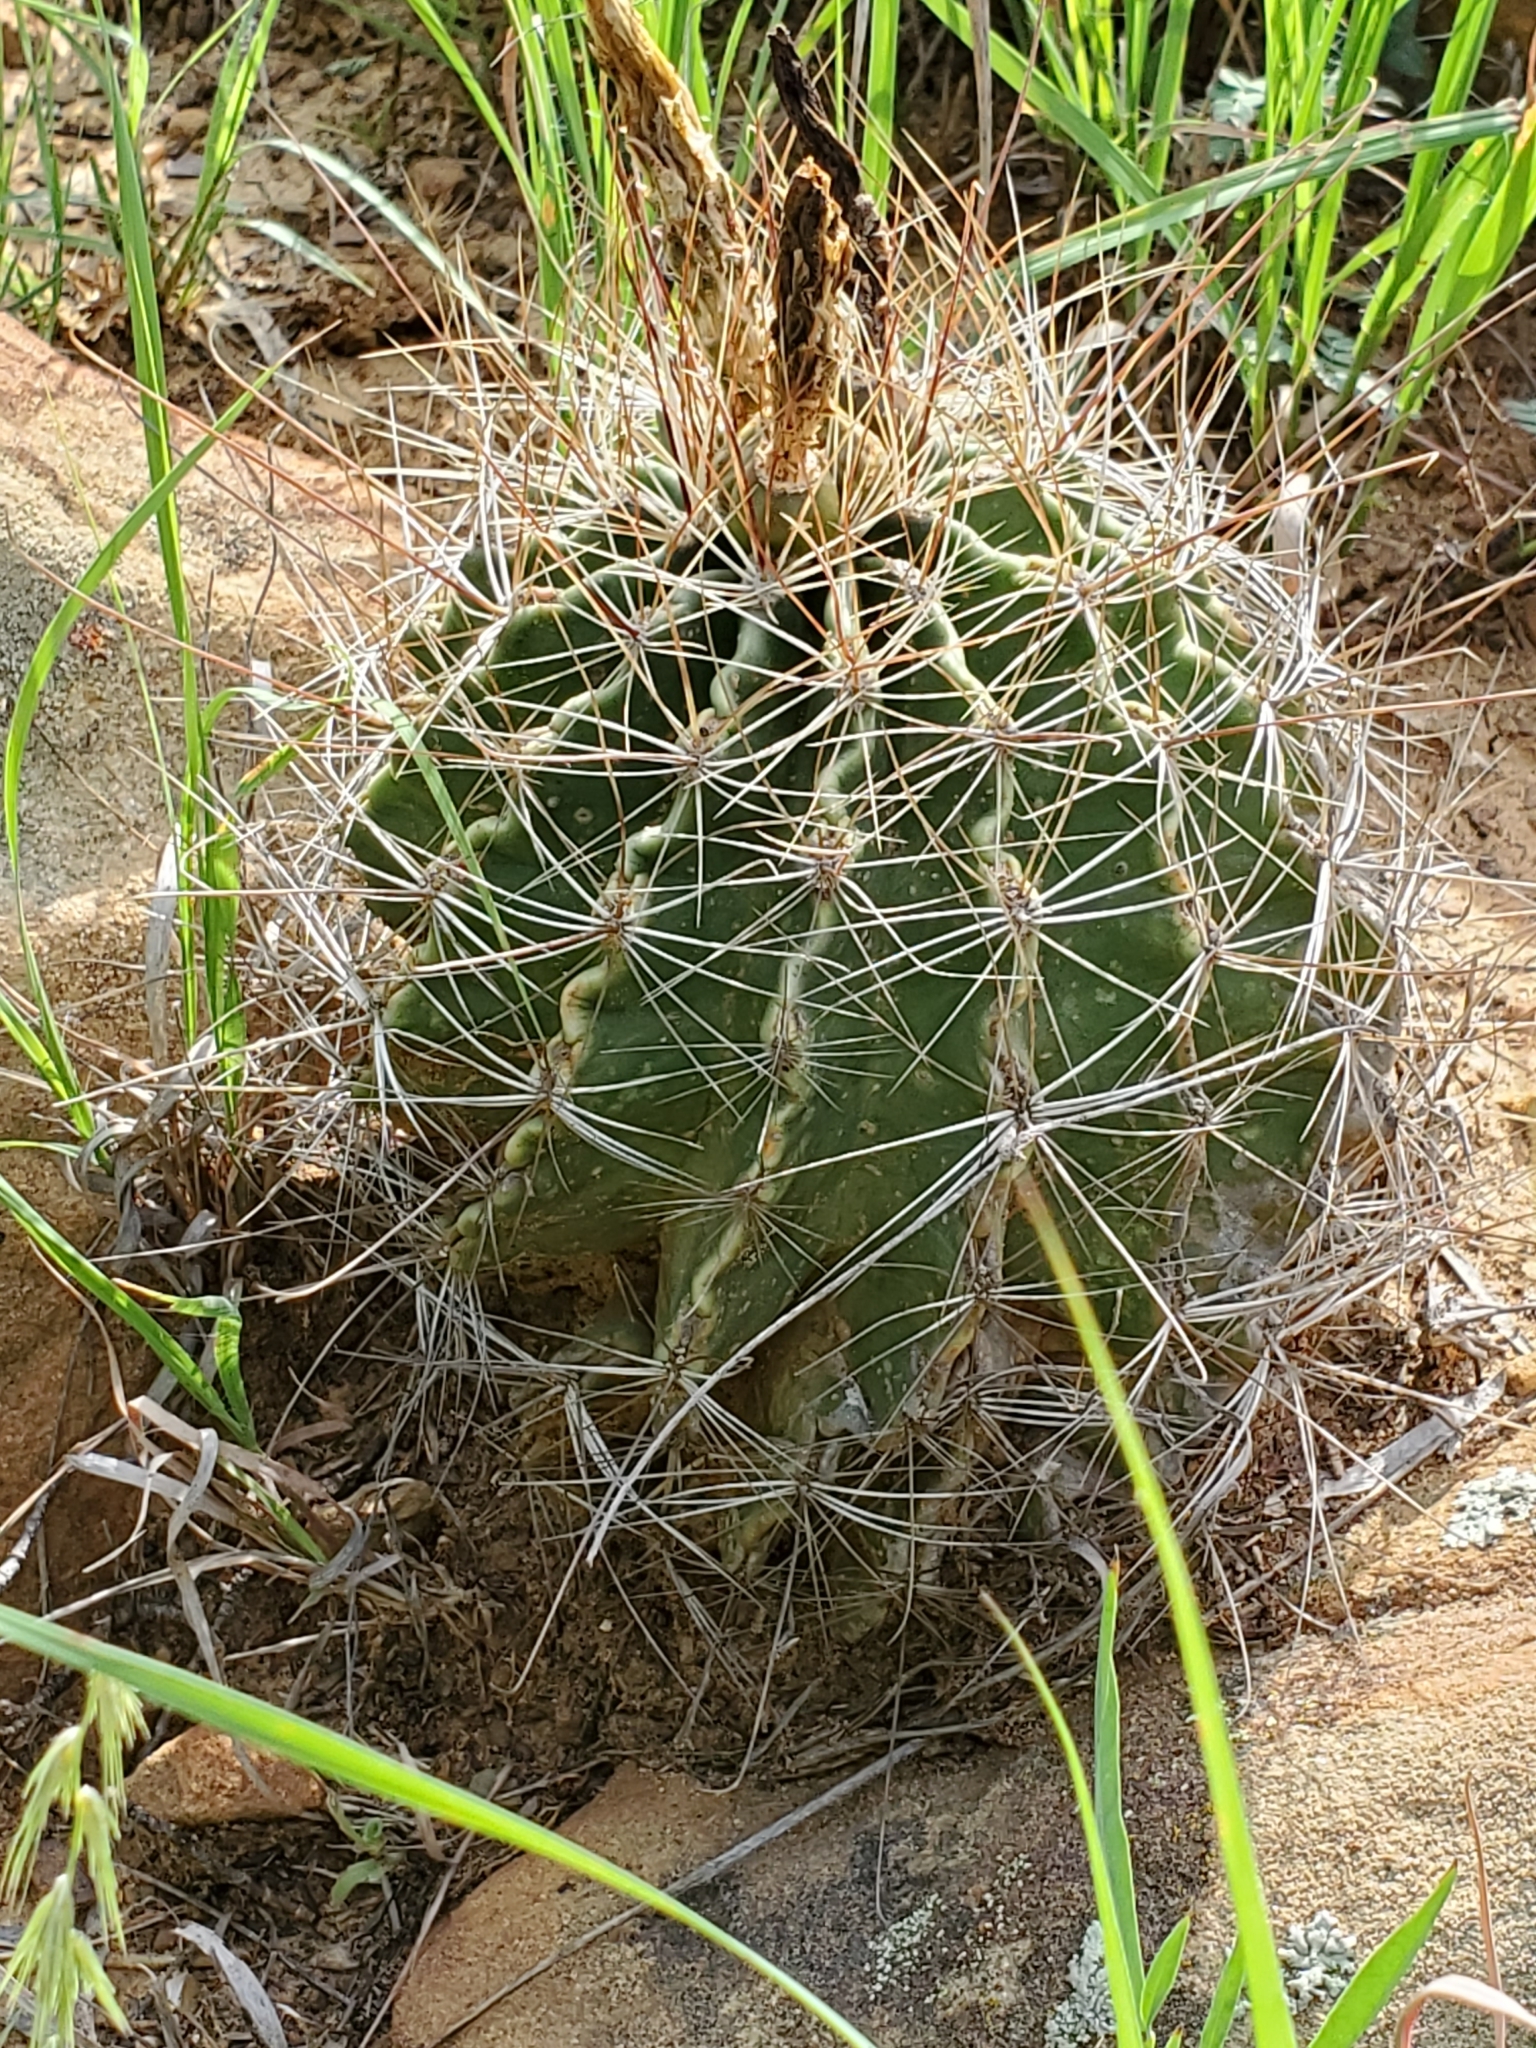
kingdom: Plantae
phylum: Tracheophyta
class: Magnoliopsida
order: Caryophyllales
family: Cactaceae
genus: Thelocactus
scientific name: Thelocactus setispinus
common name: Miniature barrel cactus
